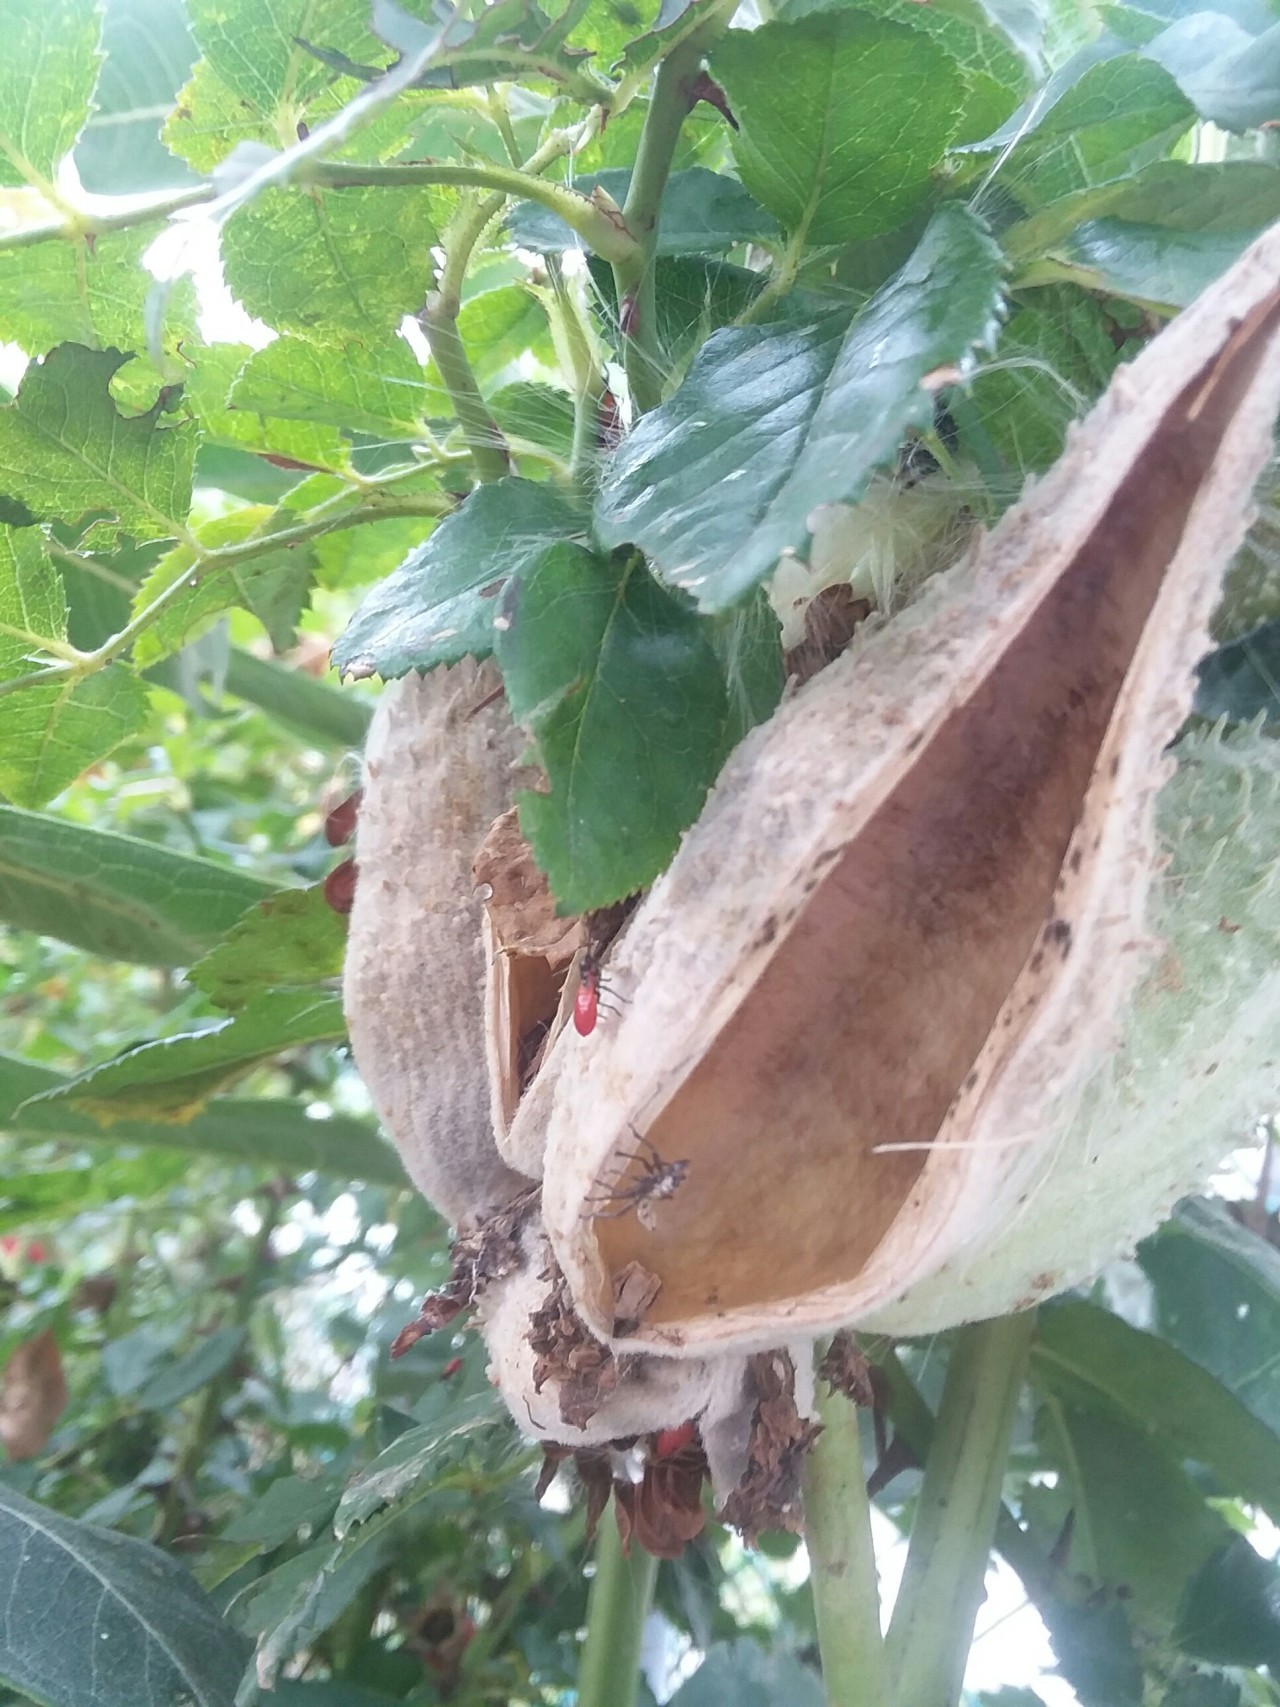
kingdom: Plantae
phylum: Tracheophyta
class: Magnoliopsida
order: Gentianales
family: Apocynaceae
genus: Asclepias
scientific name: Asclepias syriaca
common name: Common milkweed
